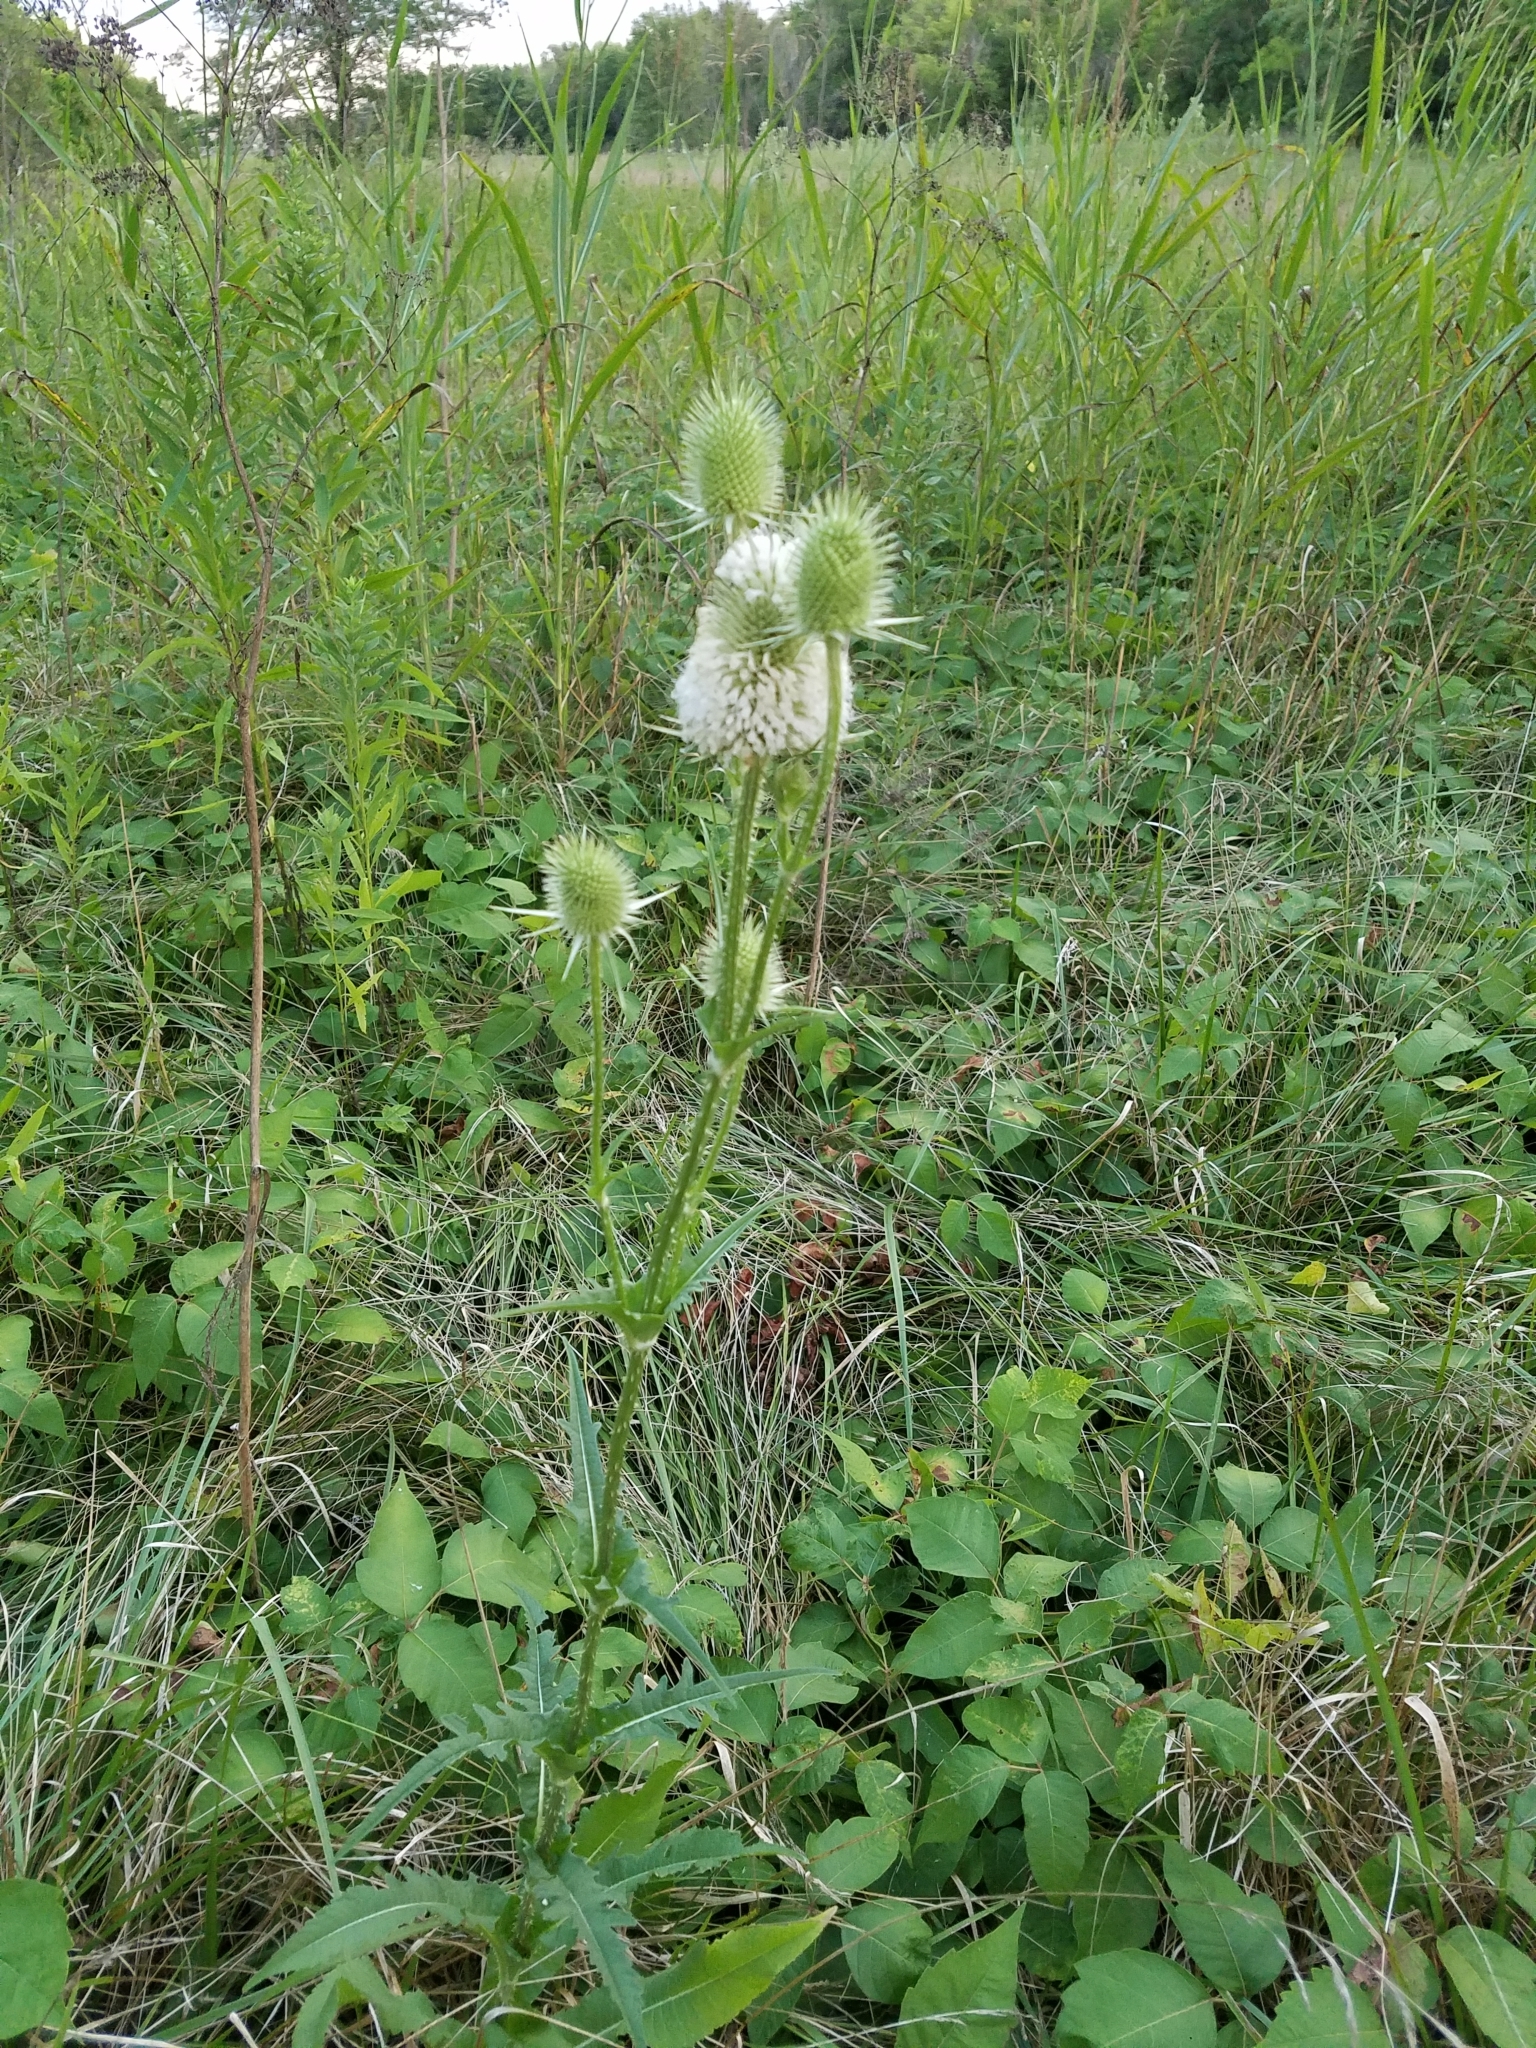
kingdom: Plantae
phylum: Tracheophyta
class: Magnoliopsida
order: Dipsacales
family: Caprifoliaceae
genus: Dipsacus
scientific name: Dipsacus laciniatus
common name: Cut-leaved teasel
